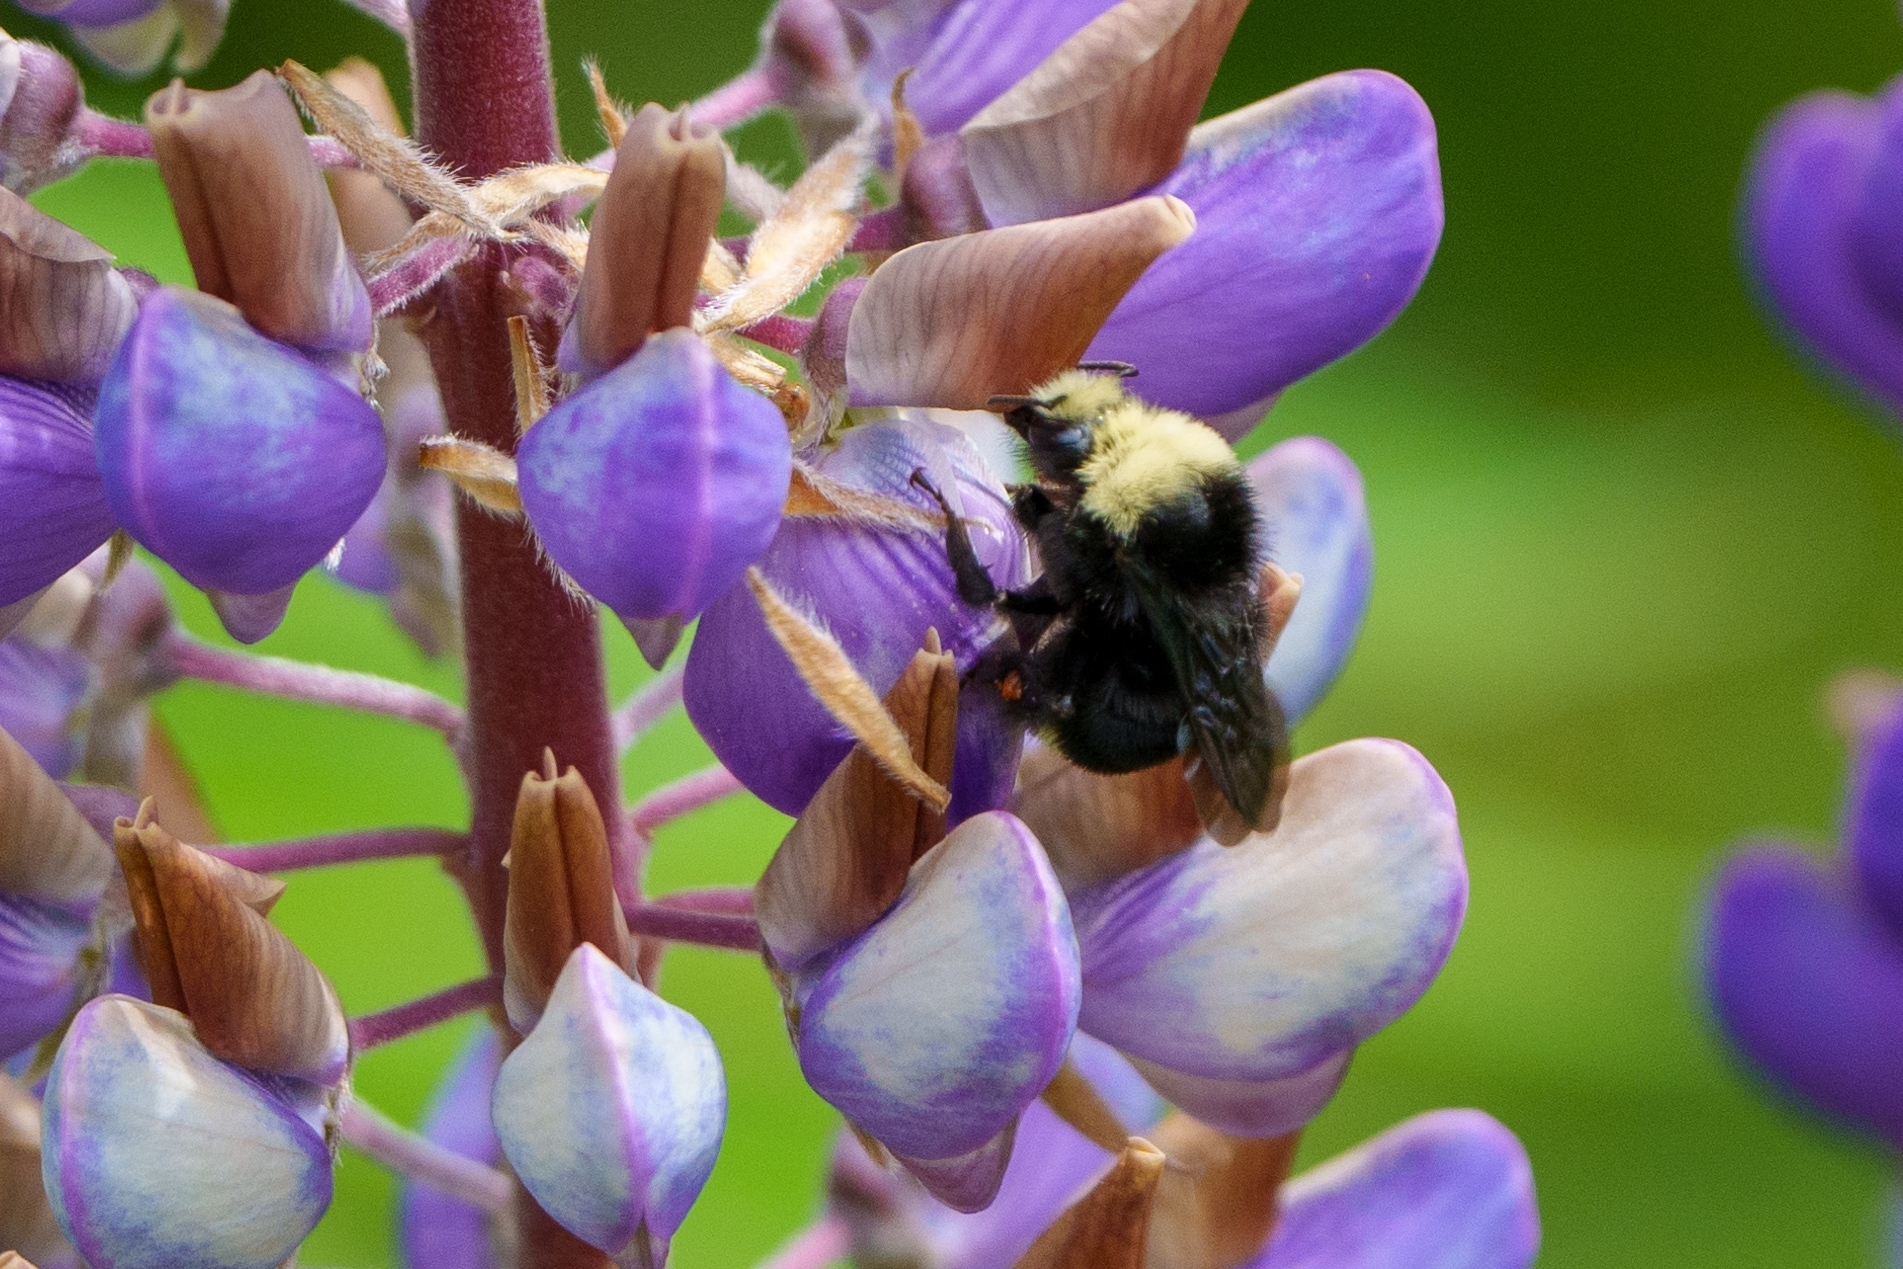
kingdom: Animalia
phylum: Arthropoda
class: Insecta
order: Hymenoptera
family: Apidae
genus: Bombus
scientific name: Bombus vosnesenskii
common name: Vosnesensky bumble bee
